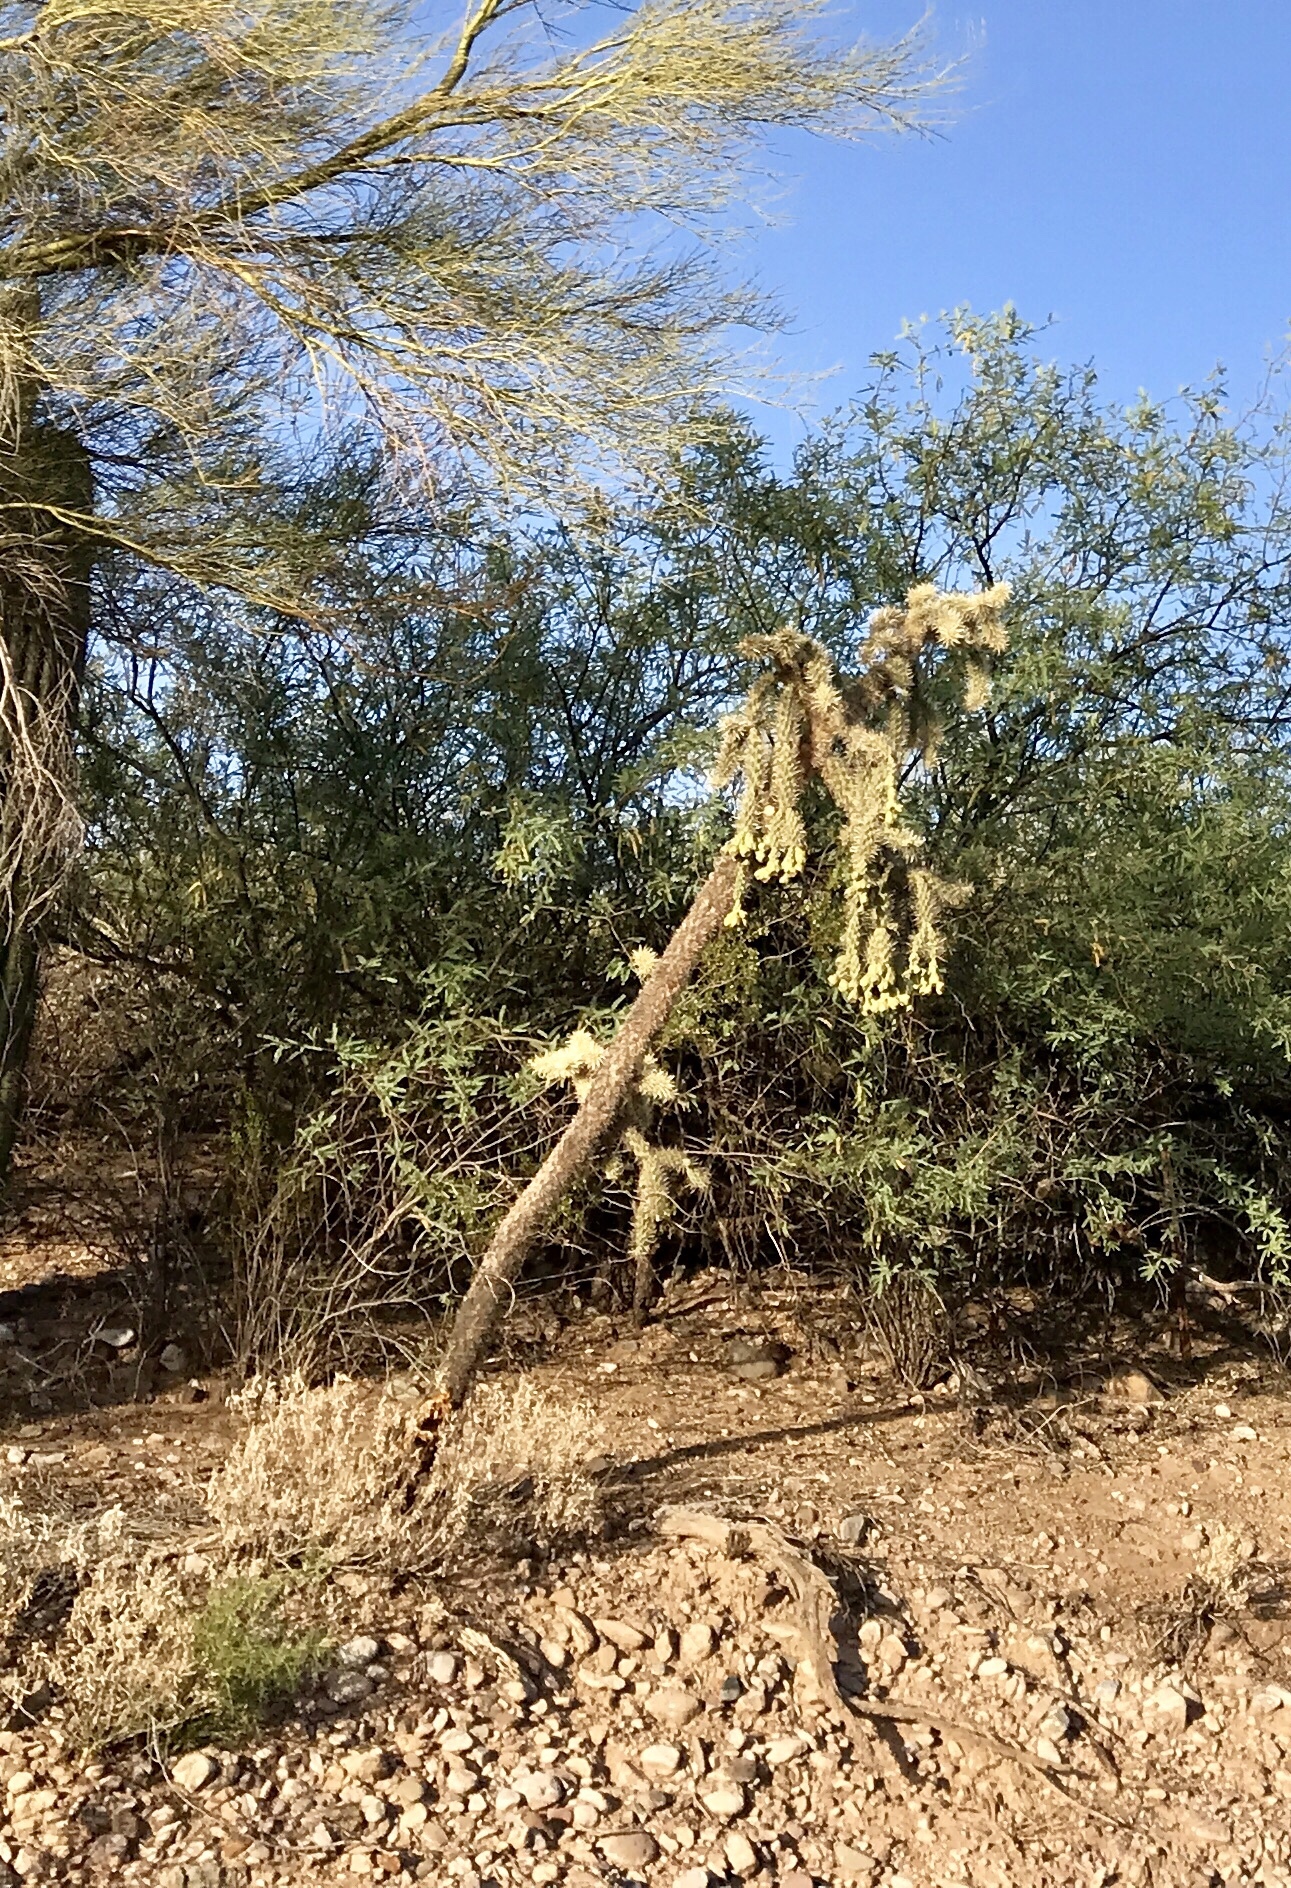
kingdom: Plantae
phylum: Tracheophyta
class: Magnoliopsida
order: Caryophyllales
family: Cactaceae
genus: Cylindropuntia
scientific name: Cylindropuntia fulgida
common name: Jumping cholla
